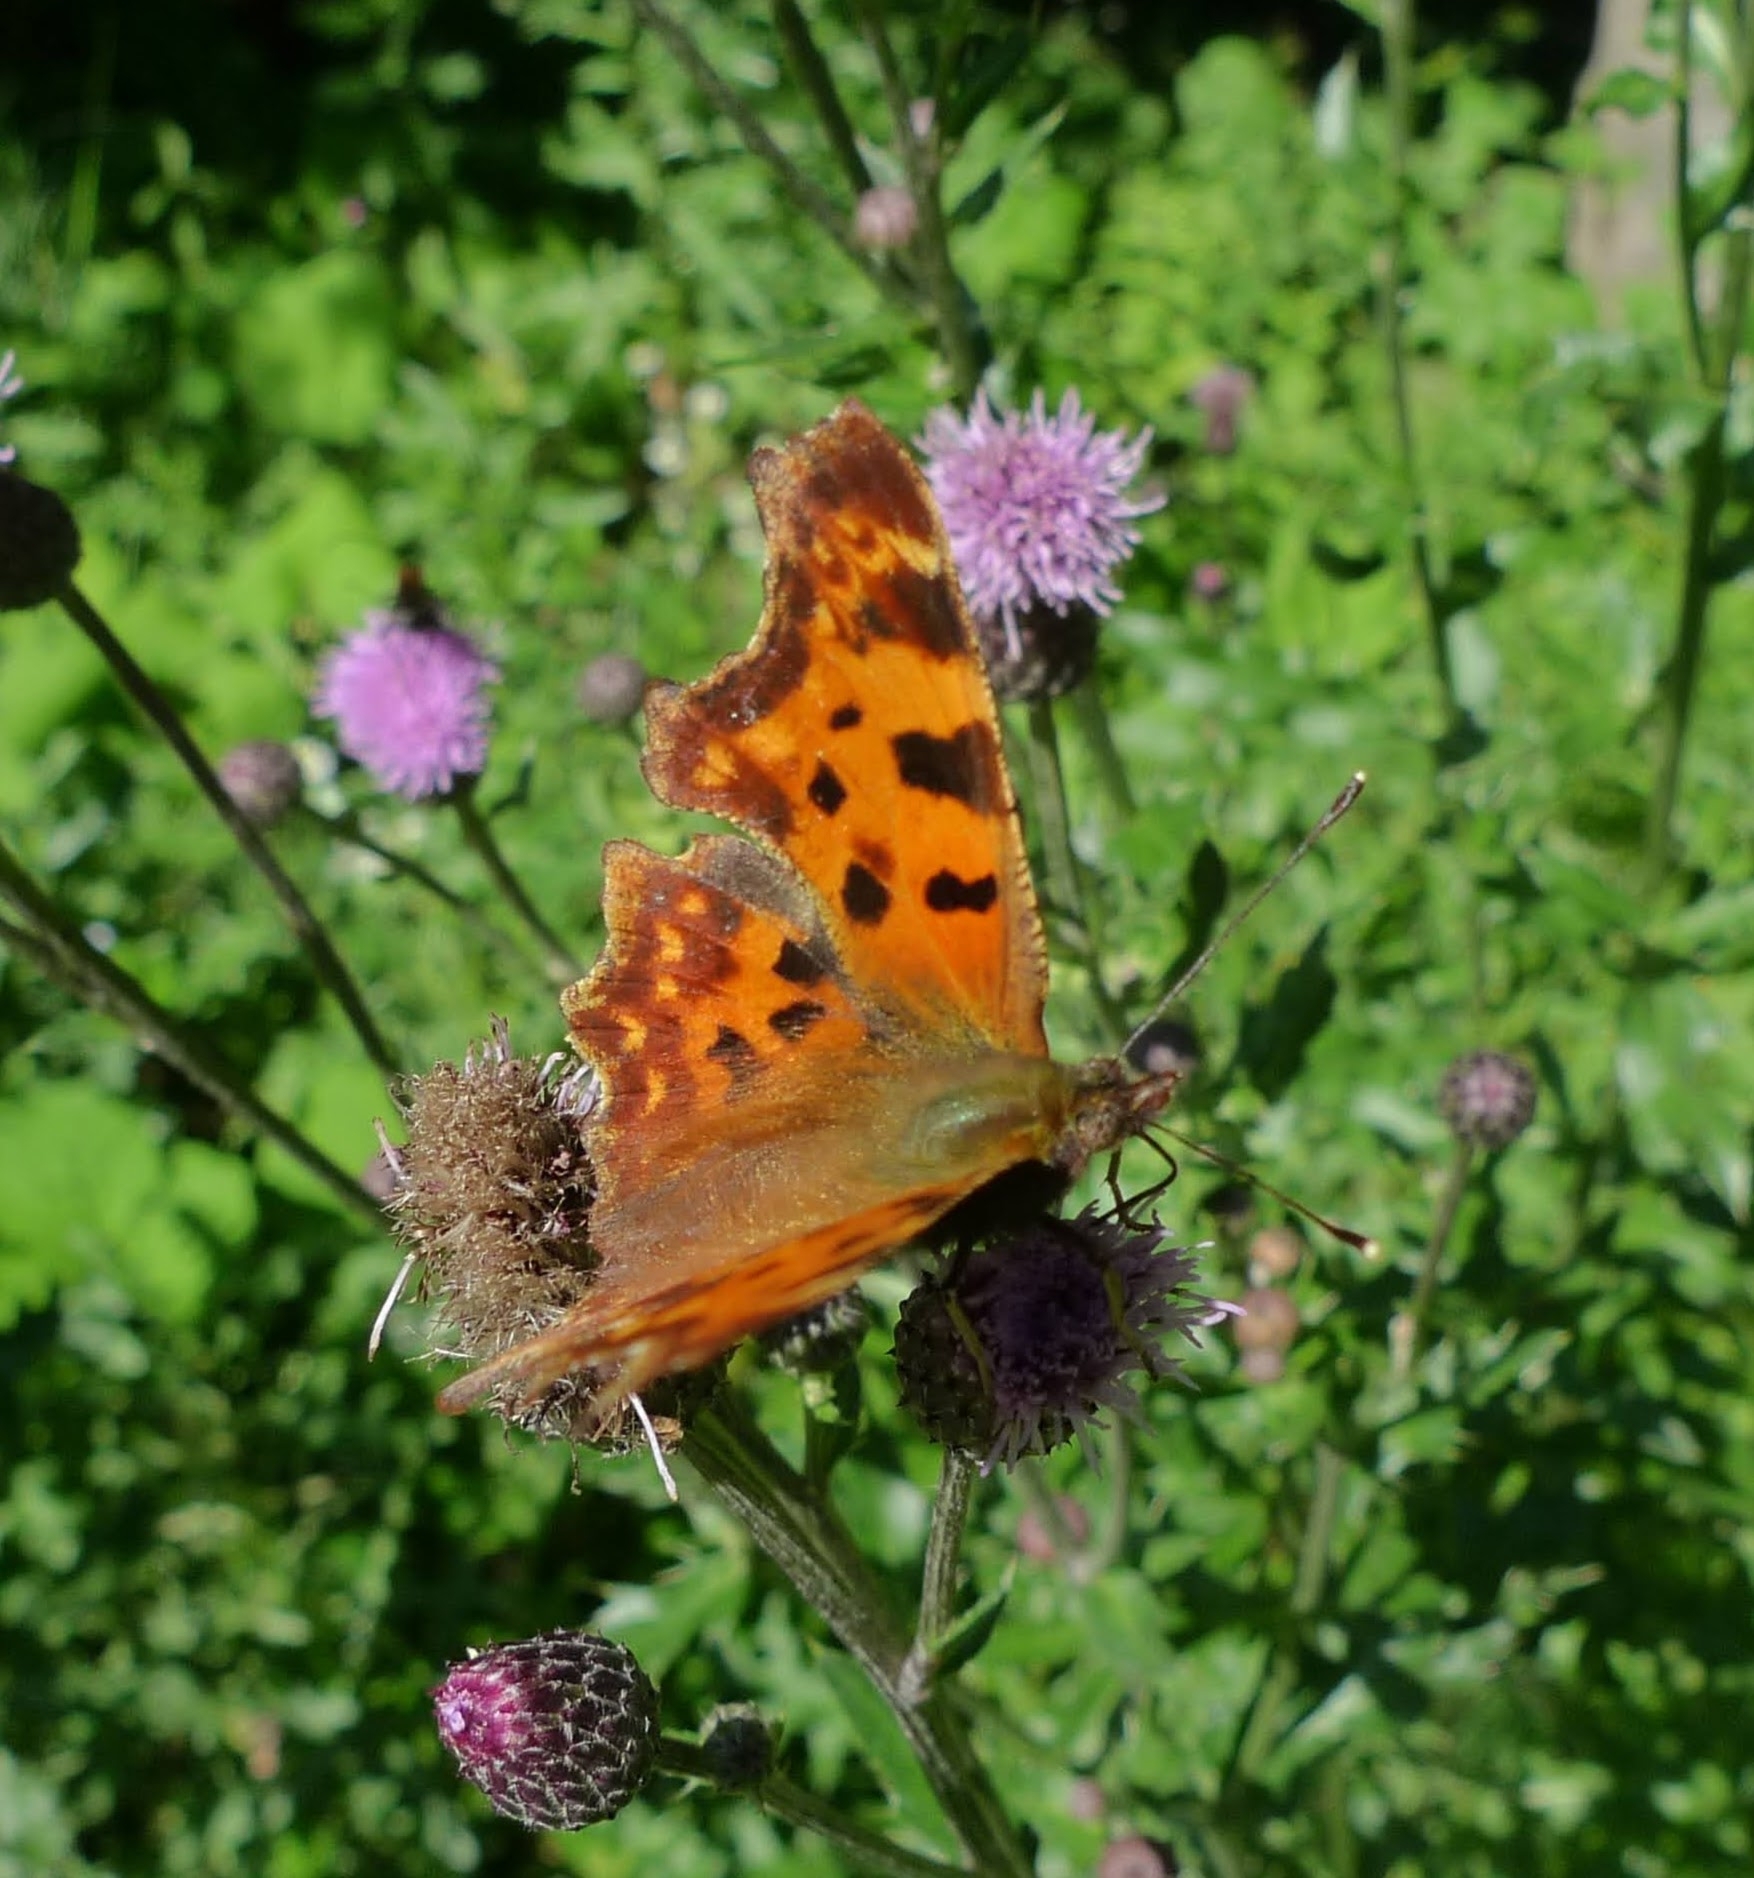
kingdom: Animalia
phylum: Arthropoda
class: Insecta
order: Lepidoptera
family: Nymphalidae
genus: Polygonia
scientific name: Polygonia c-album
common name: Comma
